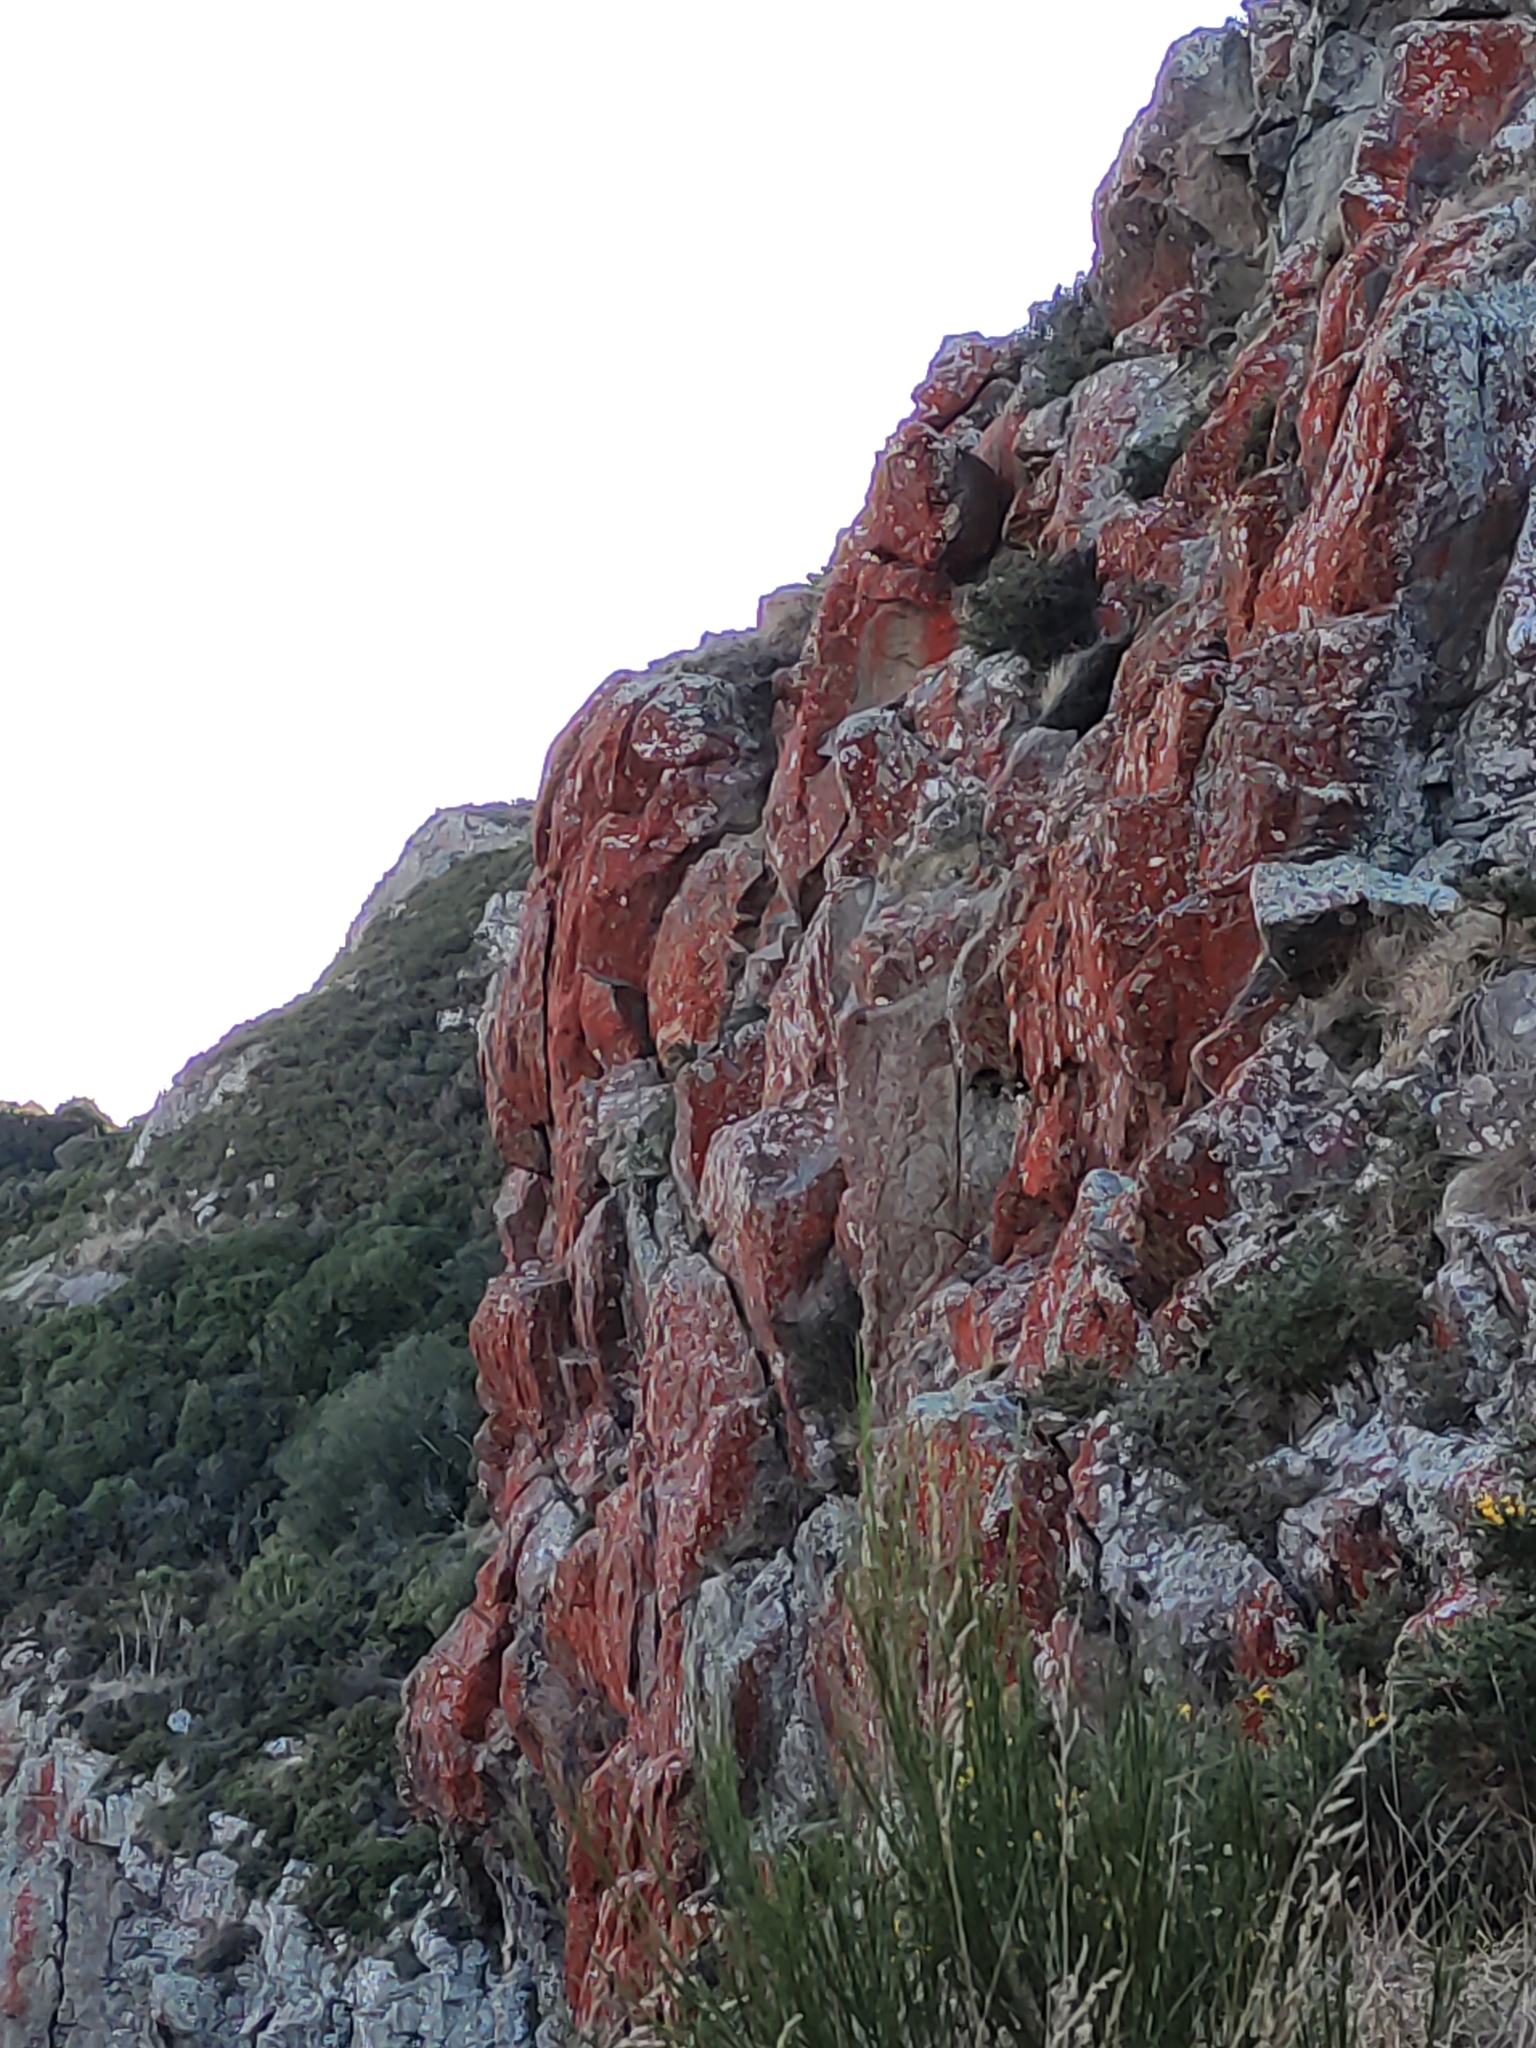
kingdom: Plantae
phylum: Chlorophyta
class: Ulvophyceae
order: Trentepohliales
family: Trentepohliaceae
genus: Trentepohlia
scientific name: Trentepohlia
